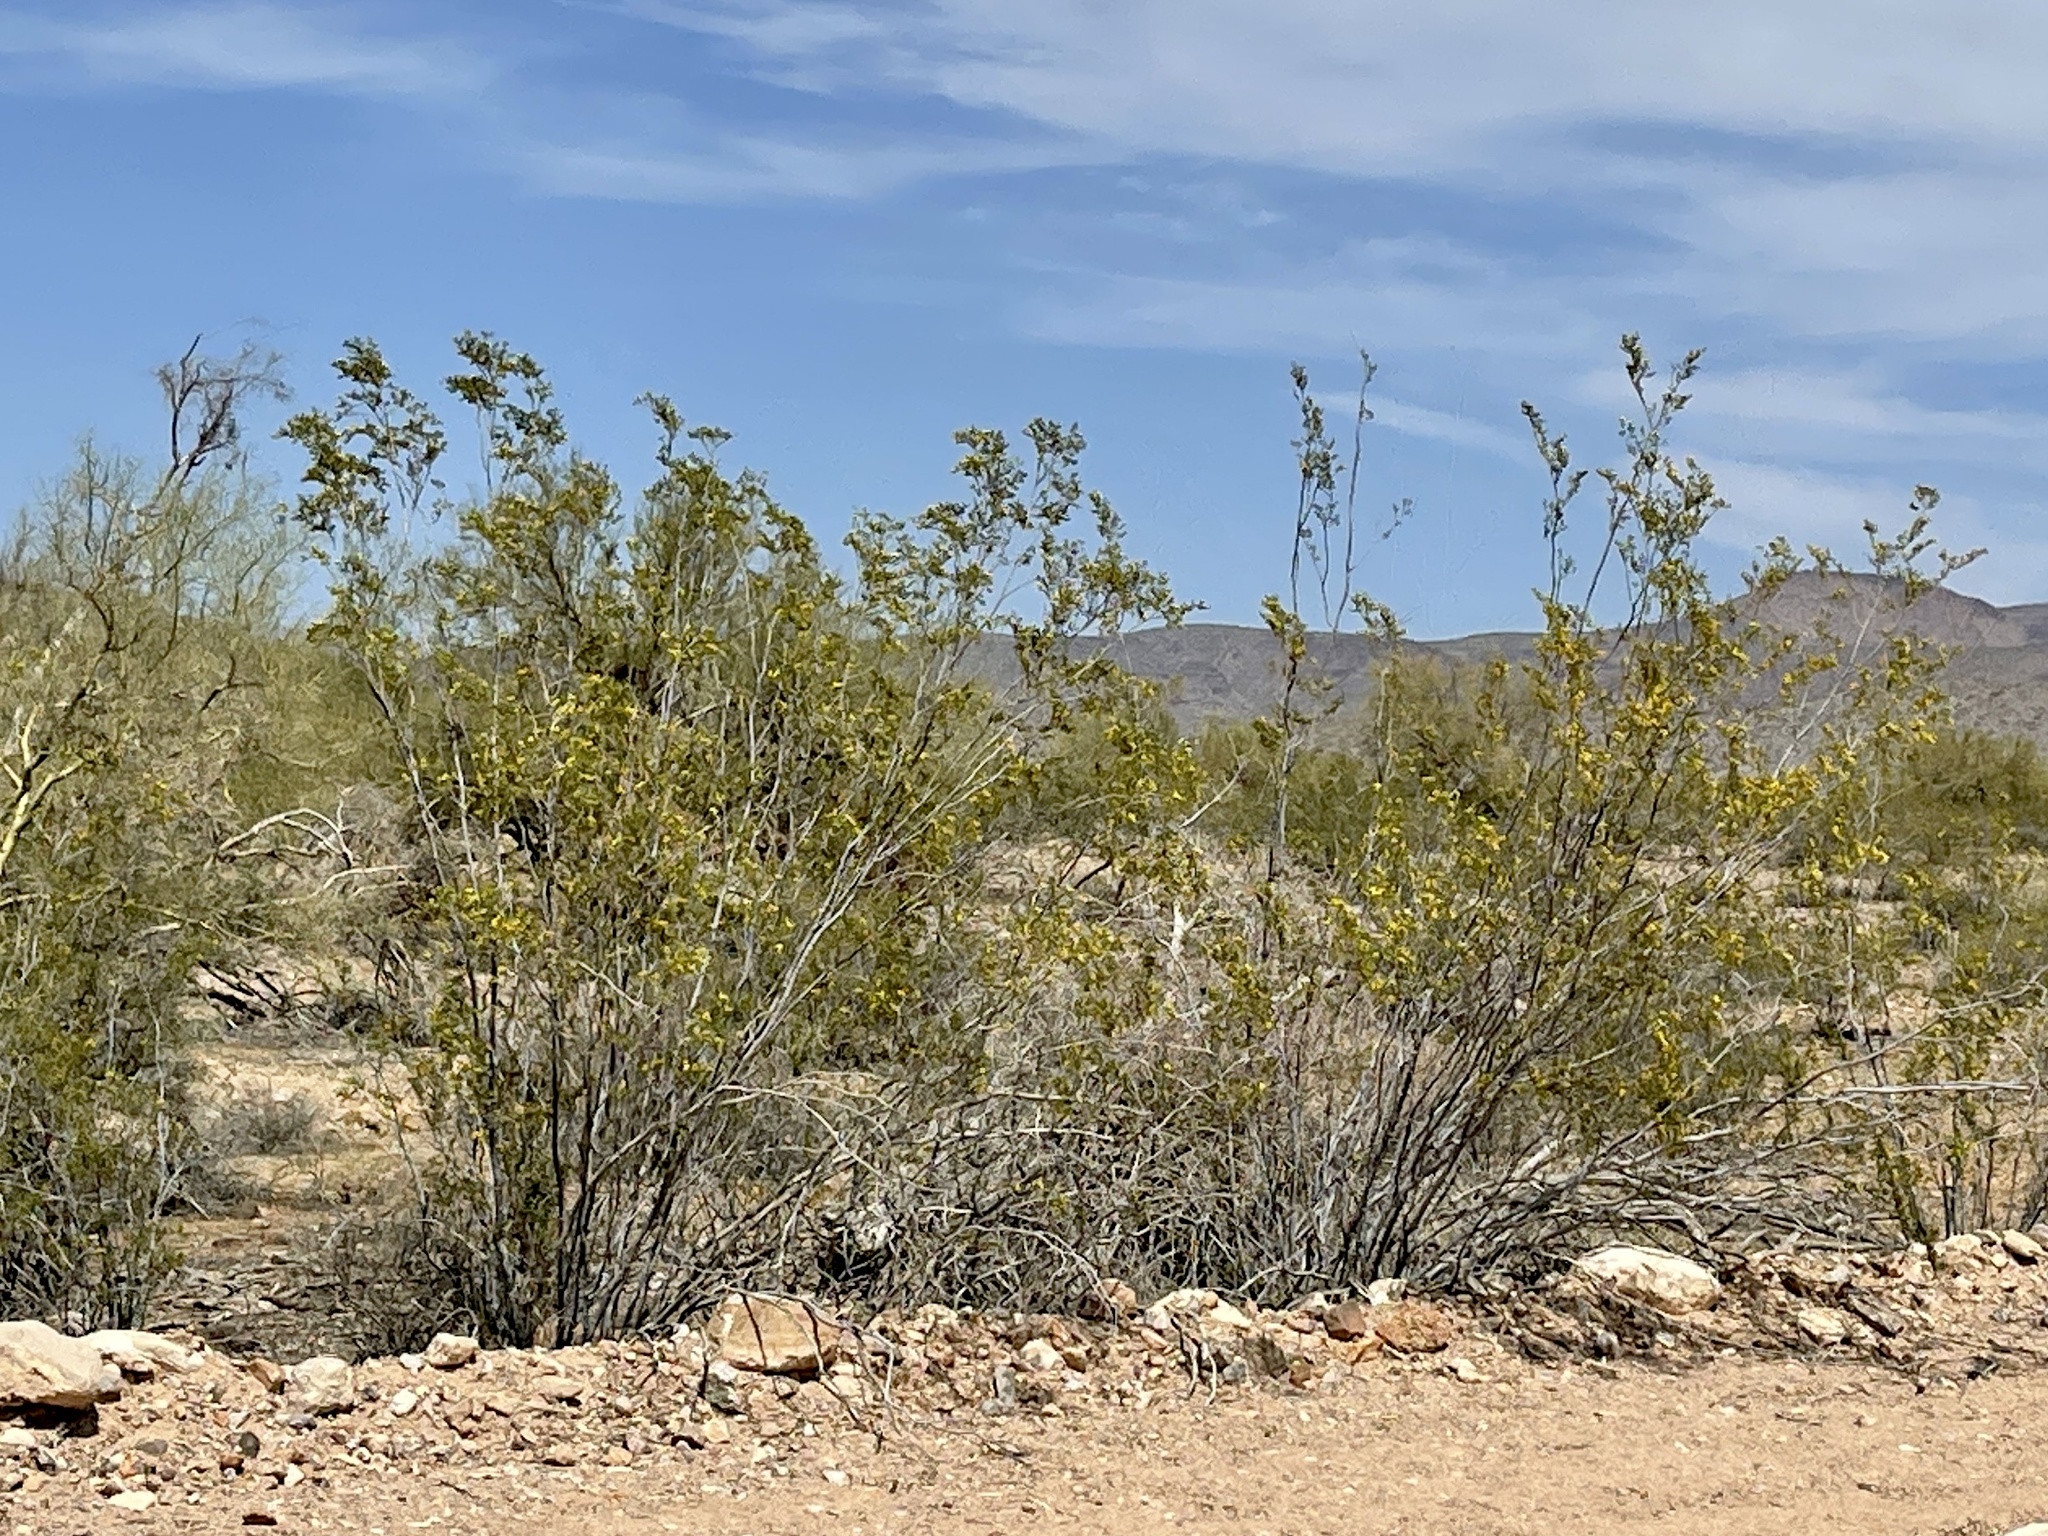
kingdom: Plantae
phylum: Tracheophyta
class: Magnoliopsida
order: Zygophyllales
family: Zygophyllaceae
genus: Larrea
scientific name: Larrea tridentata
